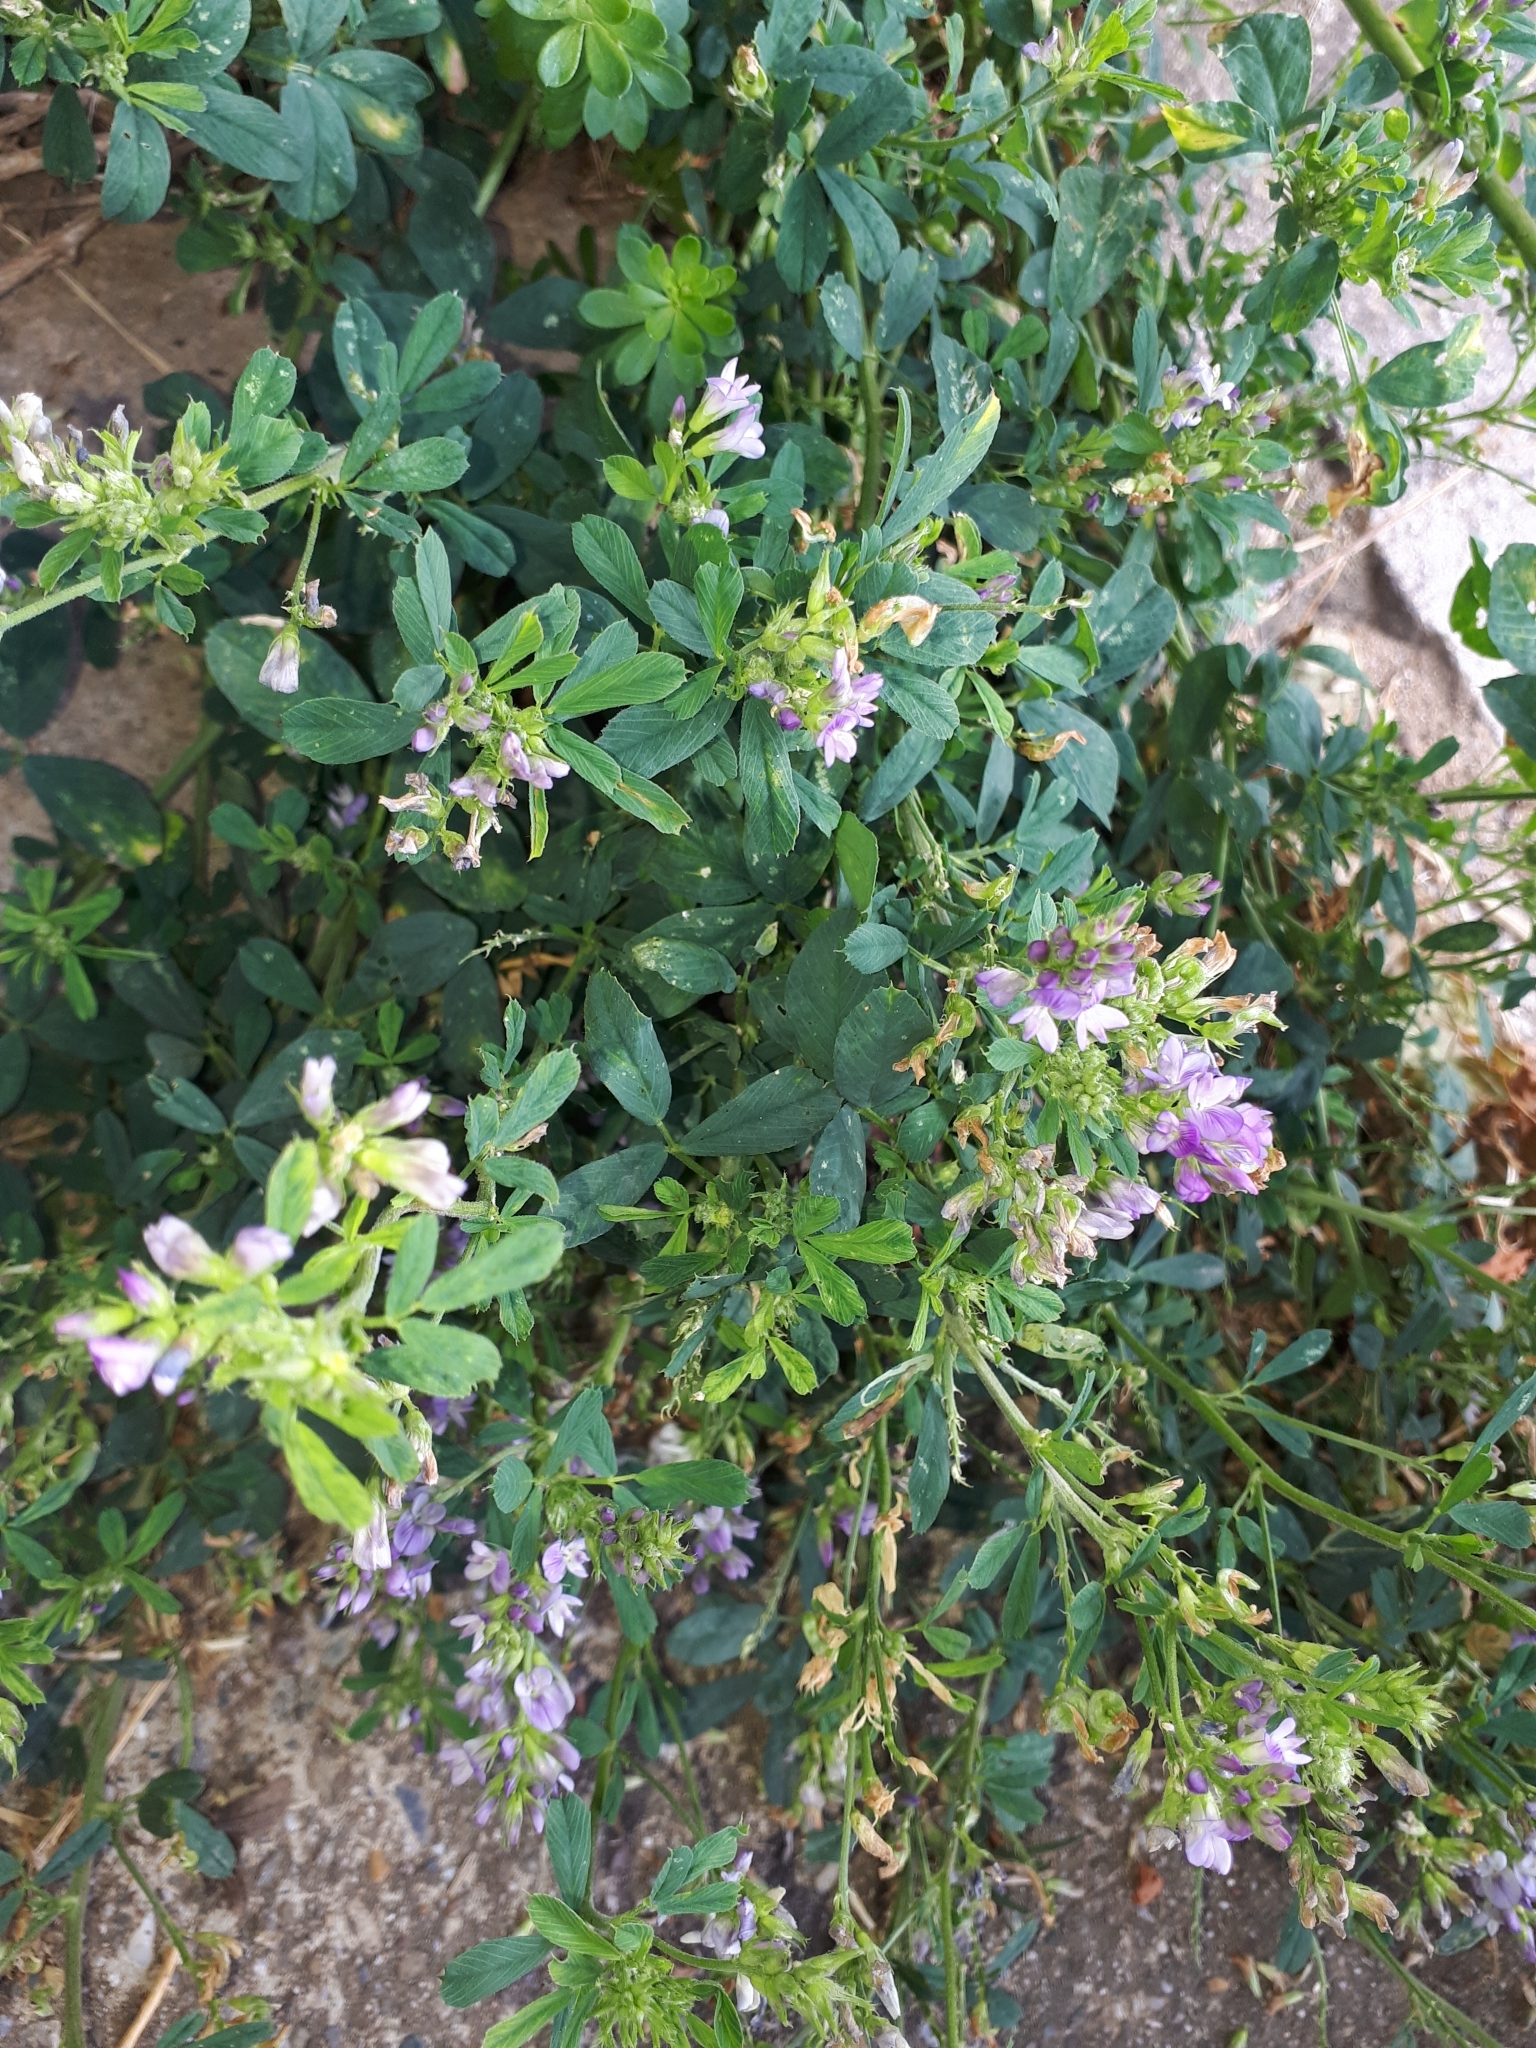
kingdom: Plantae
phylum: Tracheophyta
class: Magnoliopsida
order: Fabales
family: Fabaceae
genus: Medicago
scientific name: Medicago sativa
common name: Alfalfa
